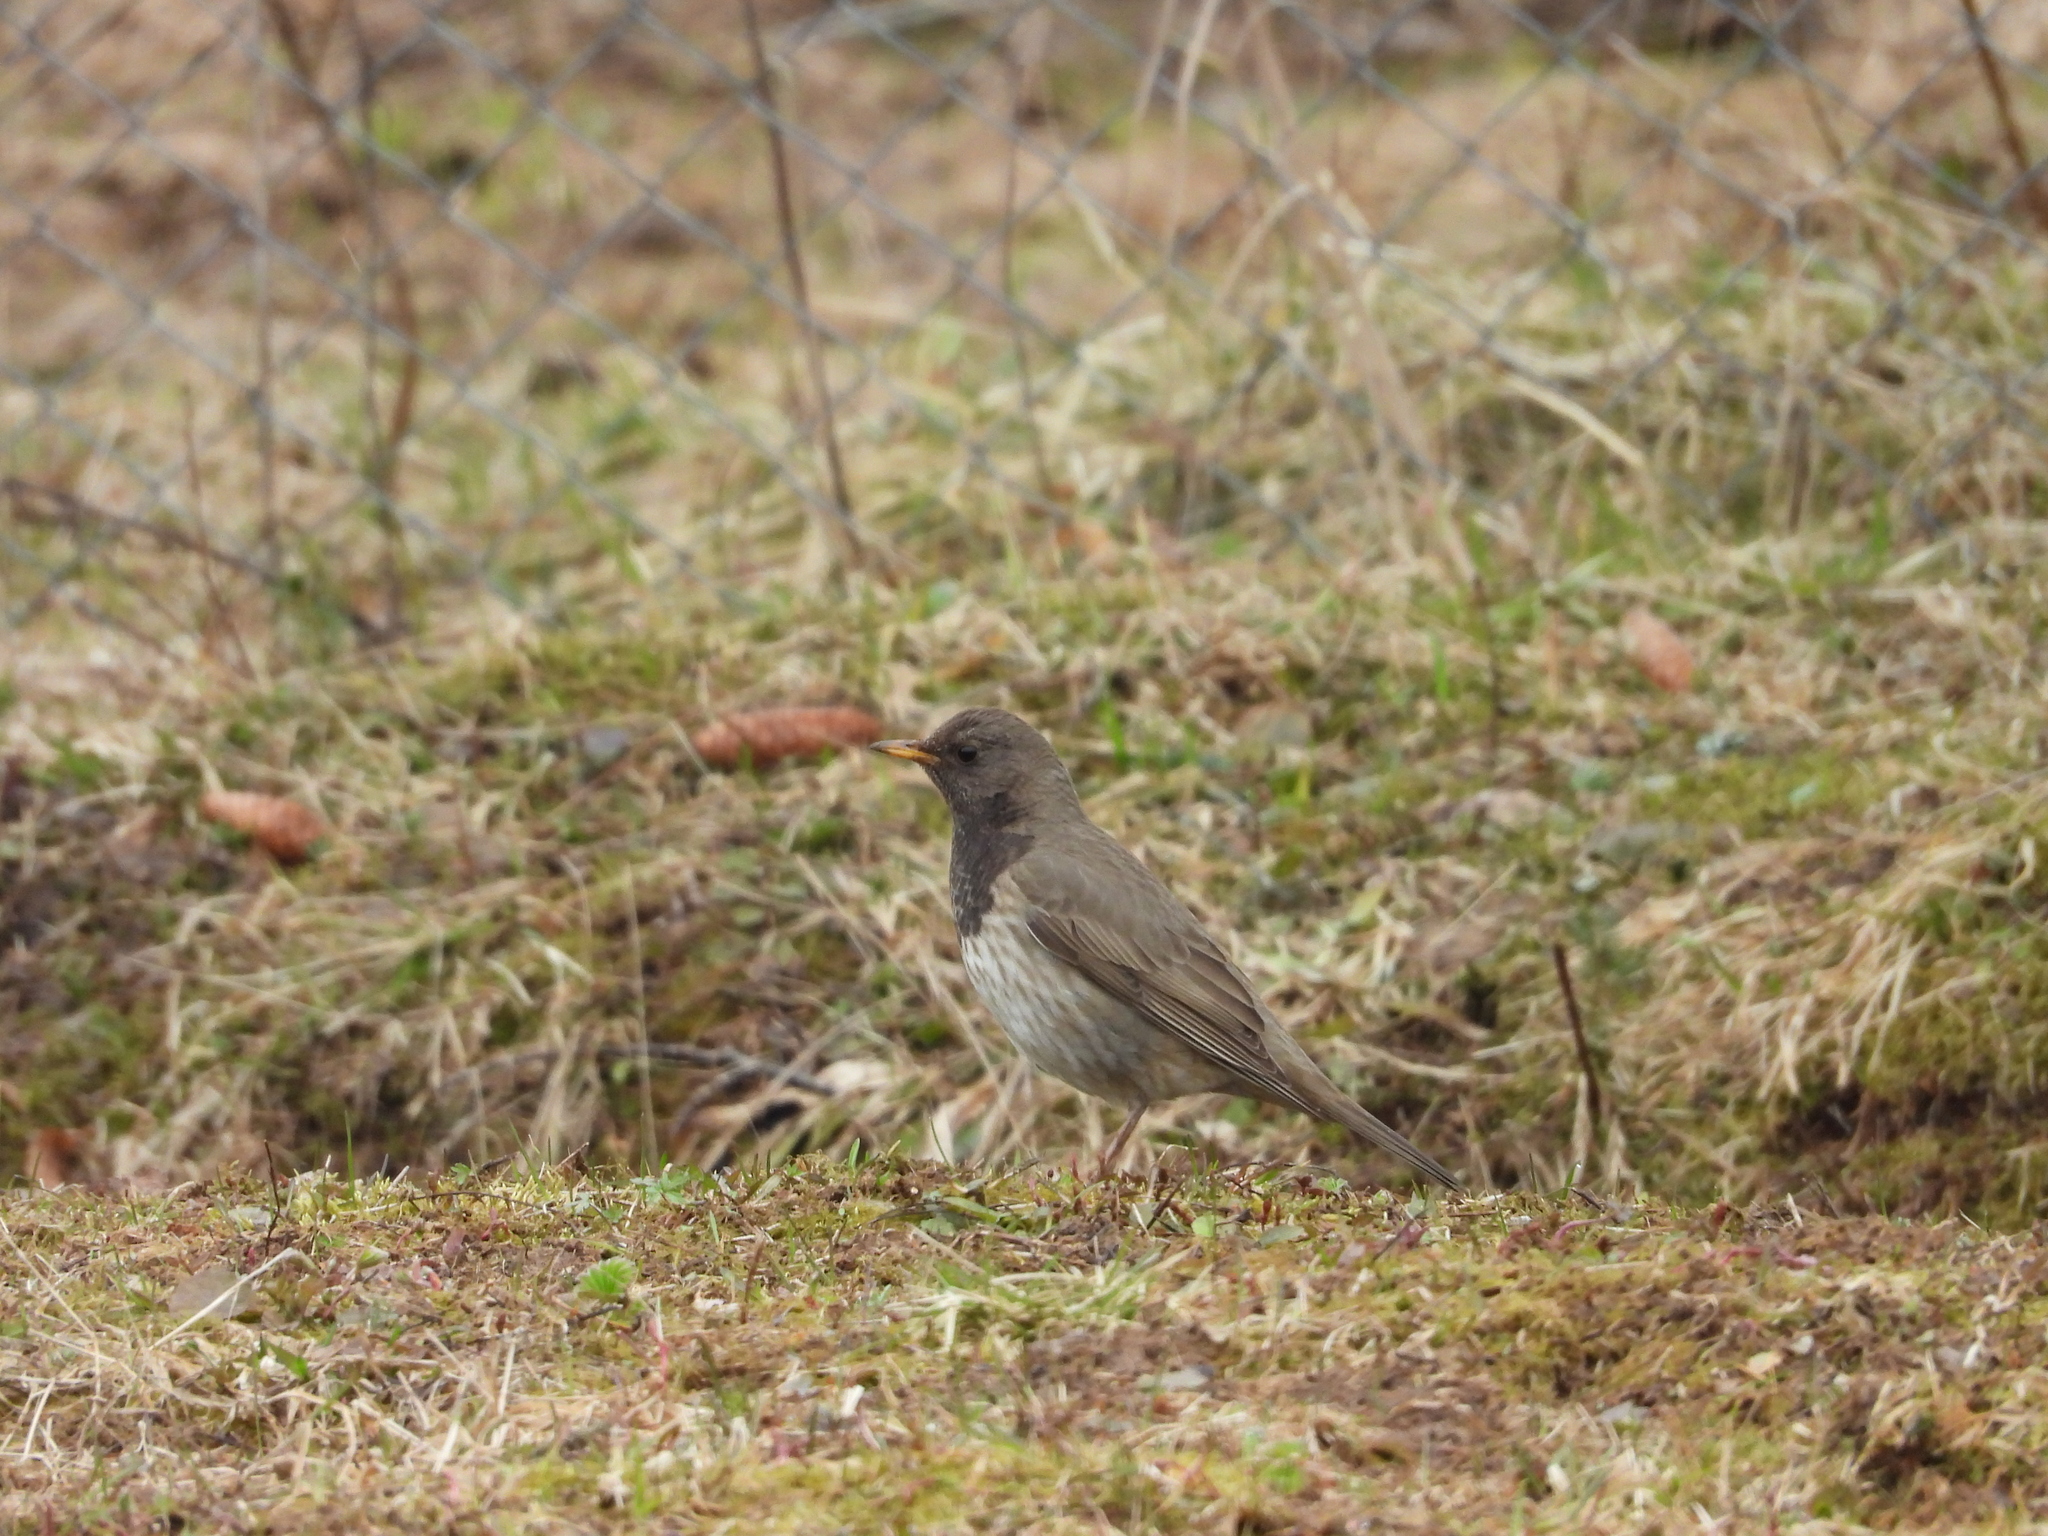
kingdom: Animalia
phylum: Chordata
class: Aves
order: Passeriformes
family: Turdidae
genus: Turdus
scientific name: Turdus atrogularis
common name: Black-throated thrush
